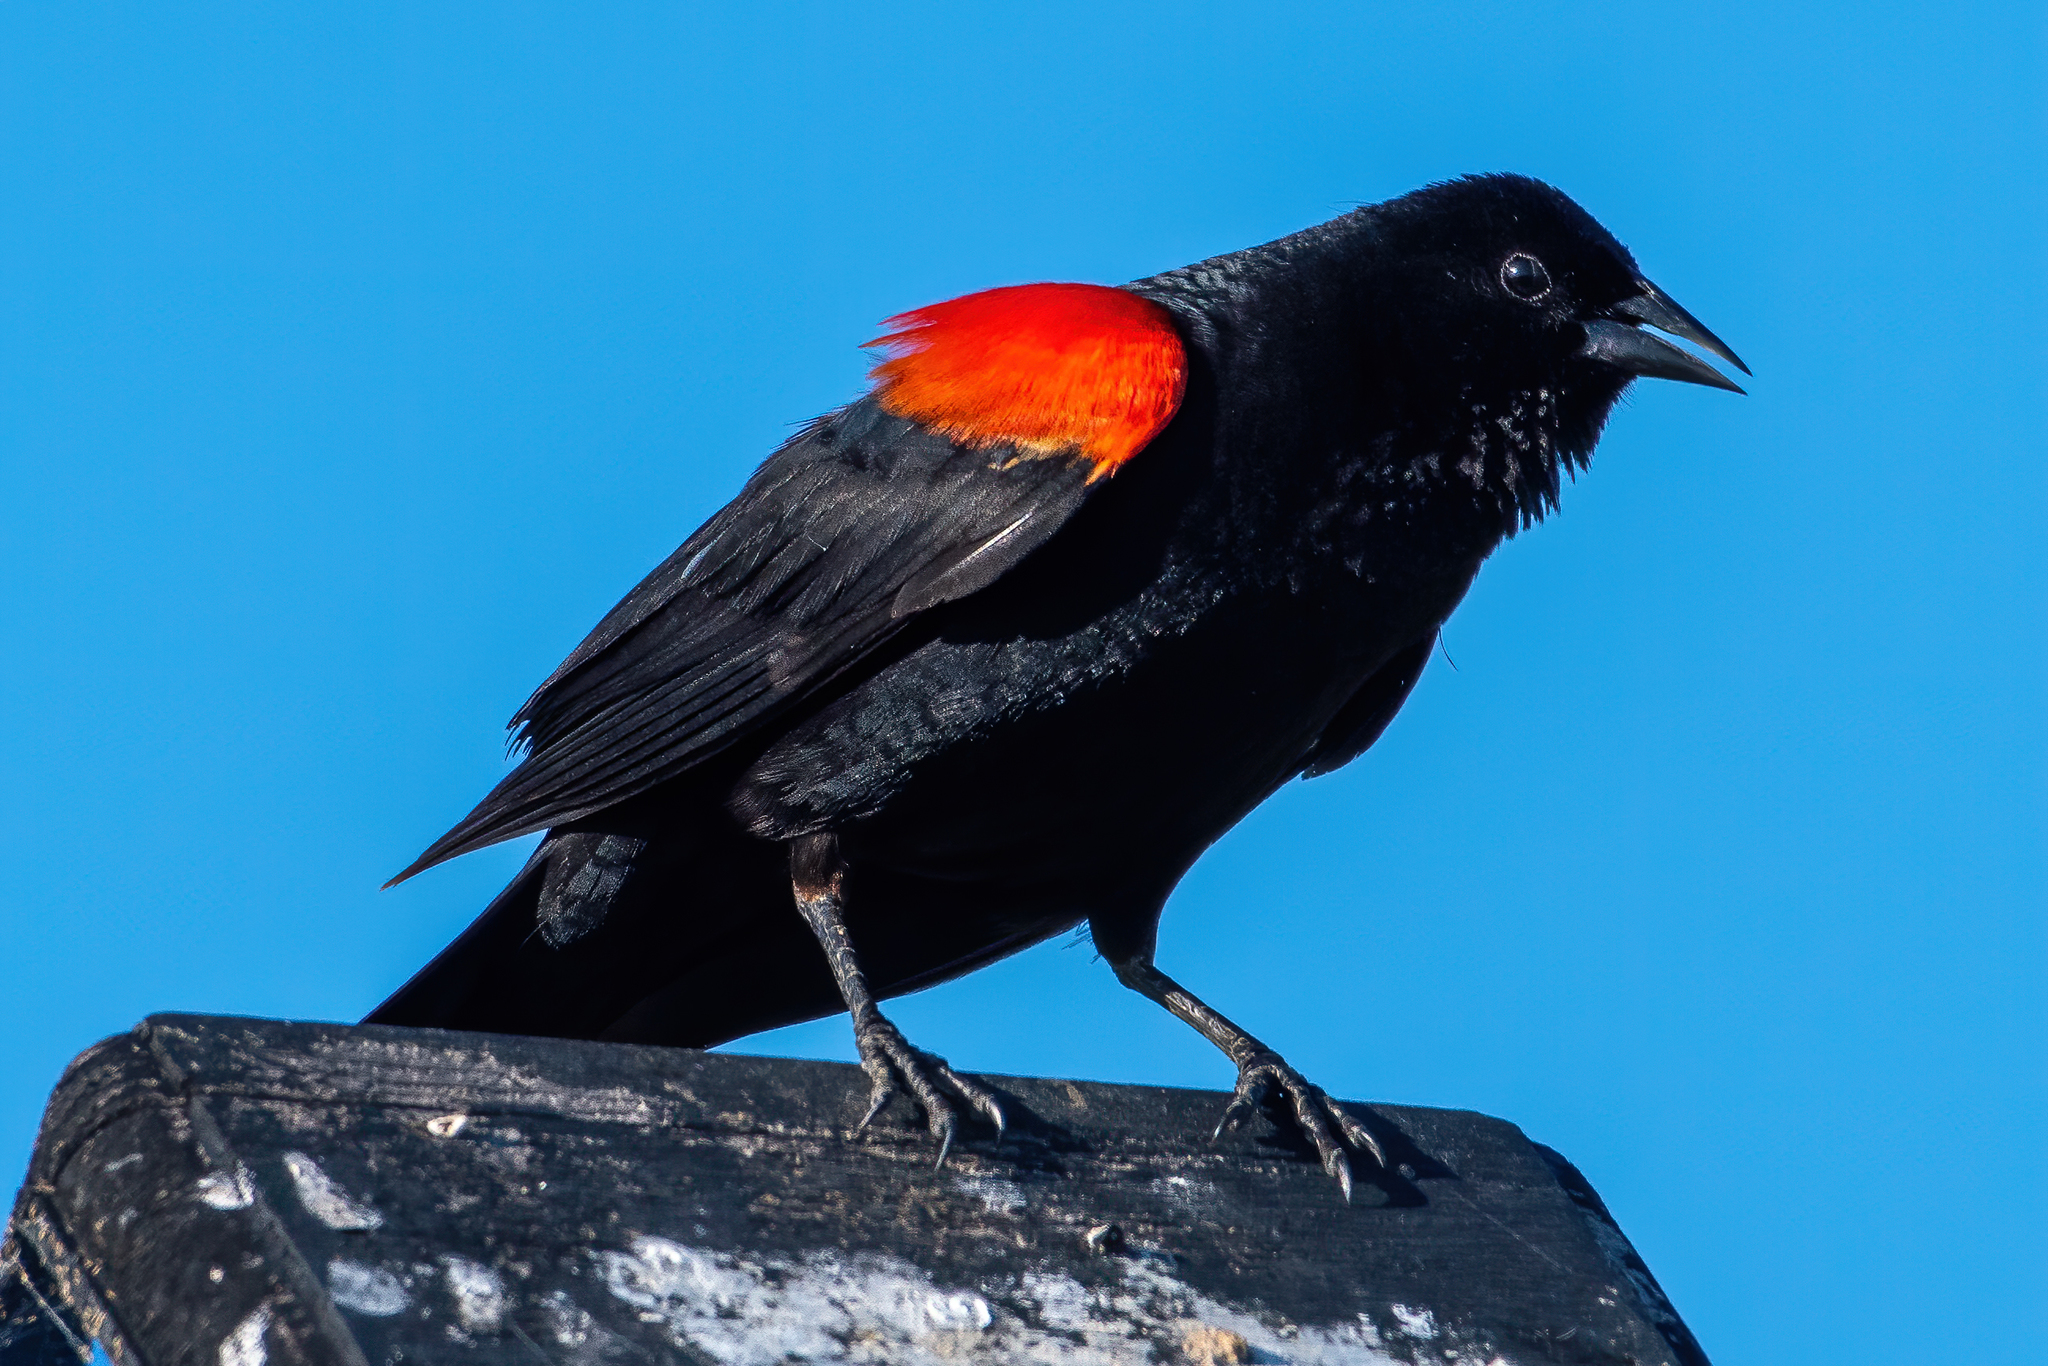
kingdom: Animalia
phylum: Chordata
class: Aves
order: Passeriformes
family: Icteridae
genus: Agelaius
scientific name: Agelaius phoeniceus
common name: Red-winged blackbird
